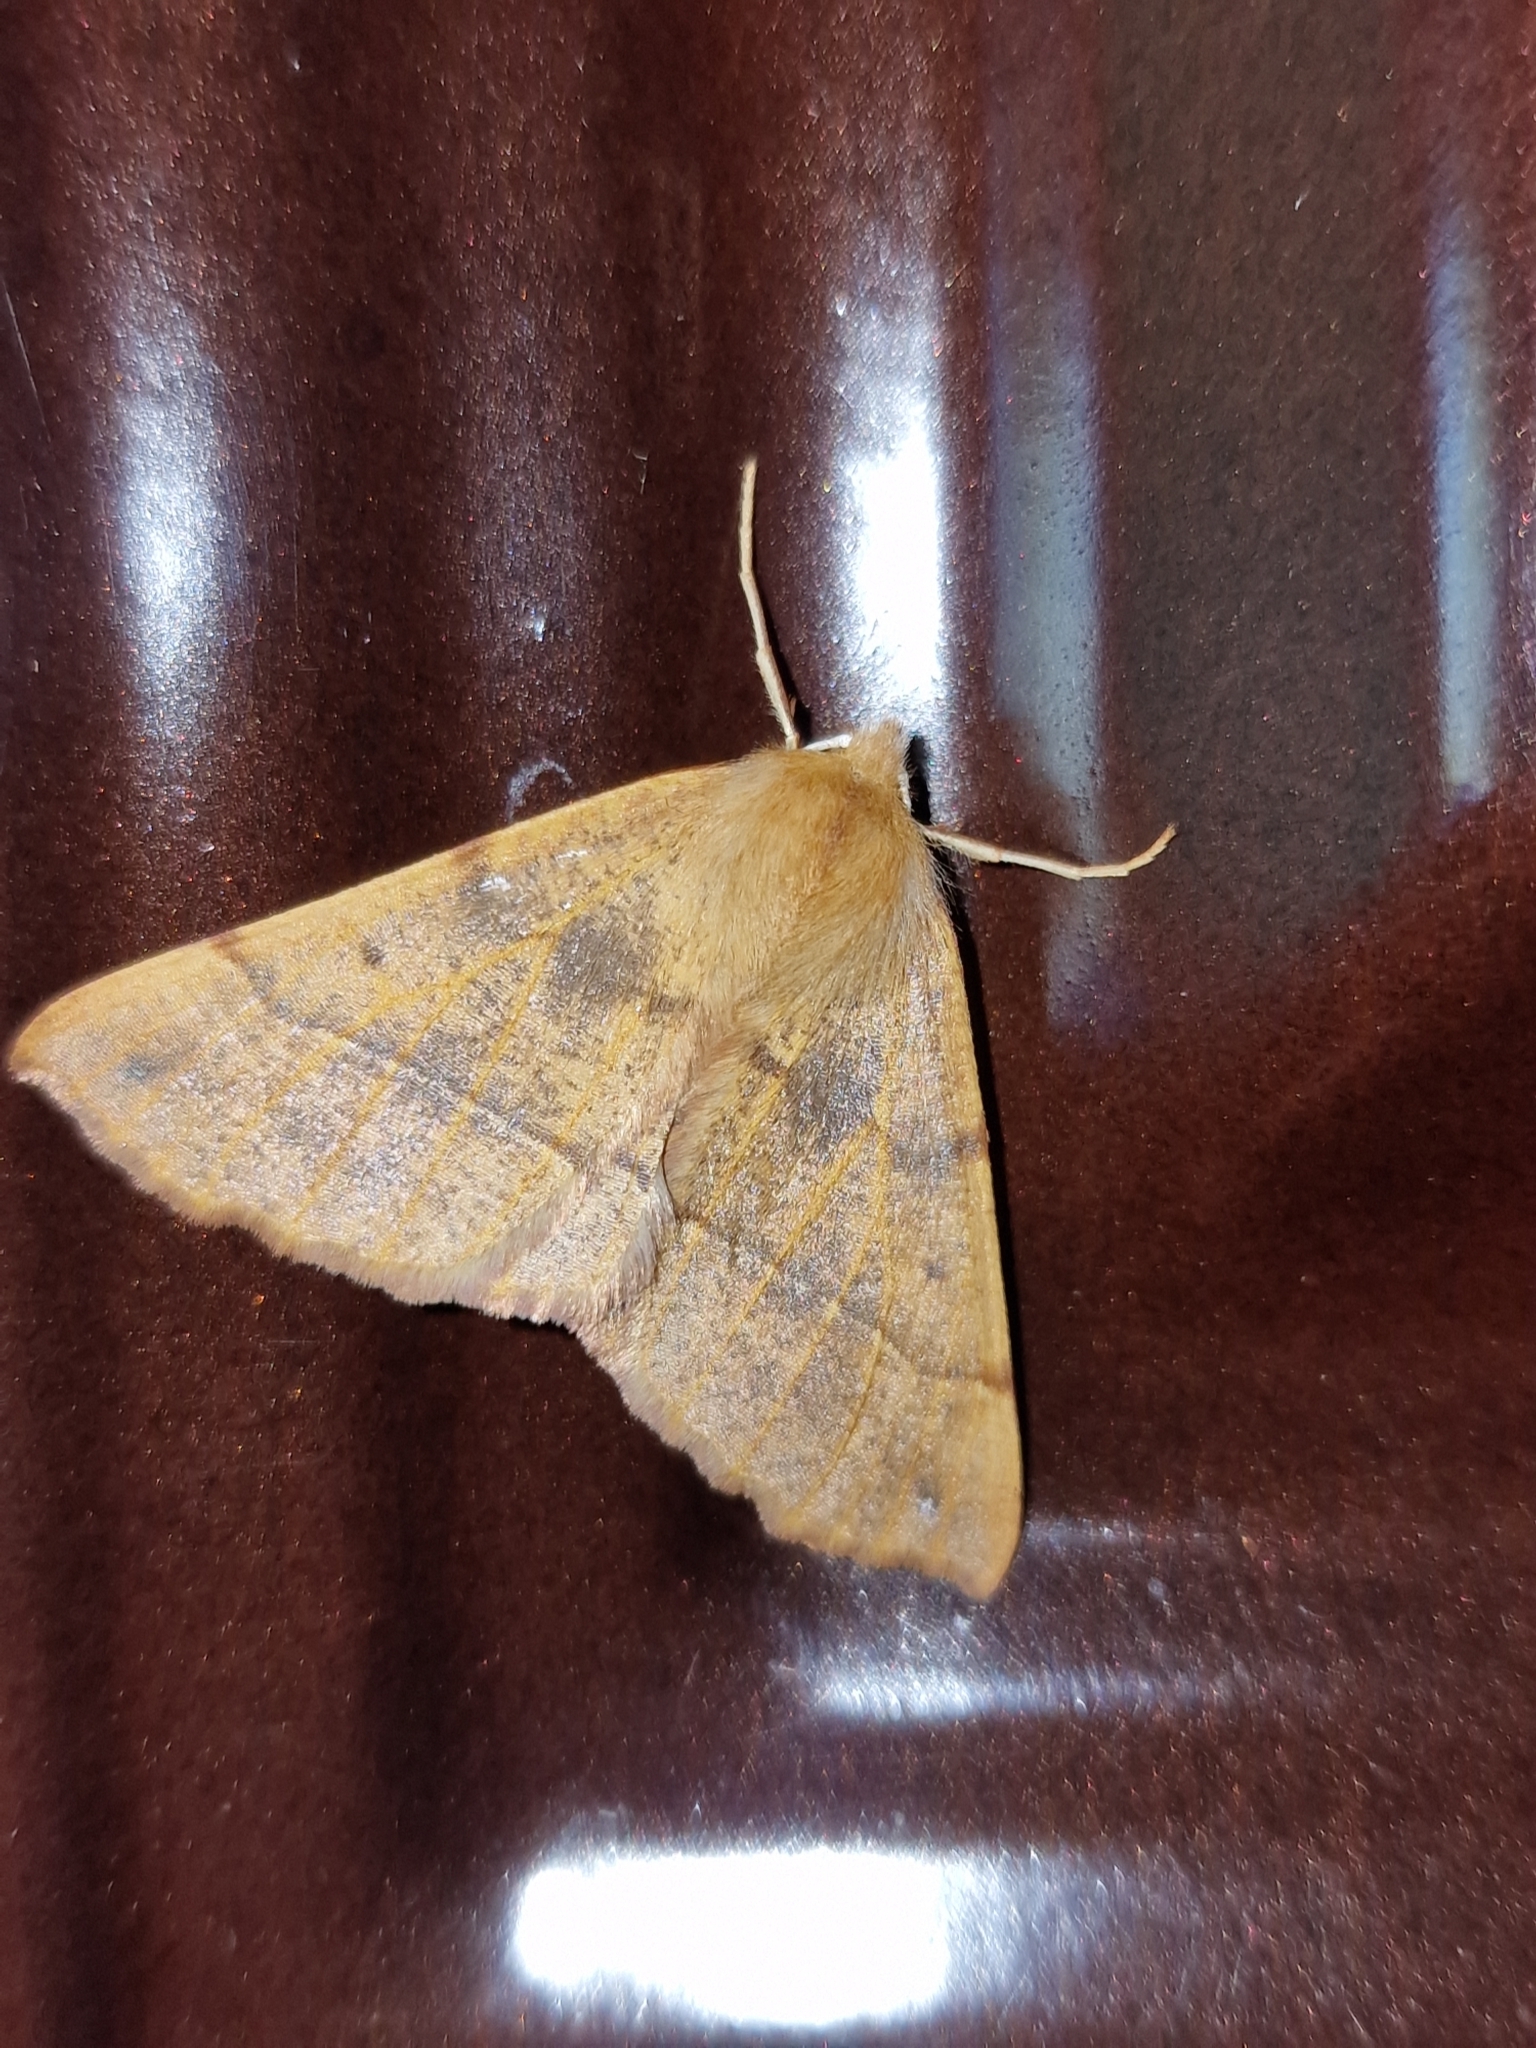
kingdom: Animalia
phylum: Arthropoda
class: Insecta
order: Lepidoptera
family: Geometridae
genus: Colotois
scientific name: Colotois pennaria
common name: Feathered thorn
